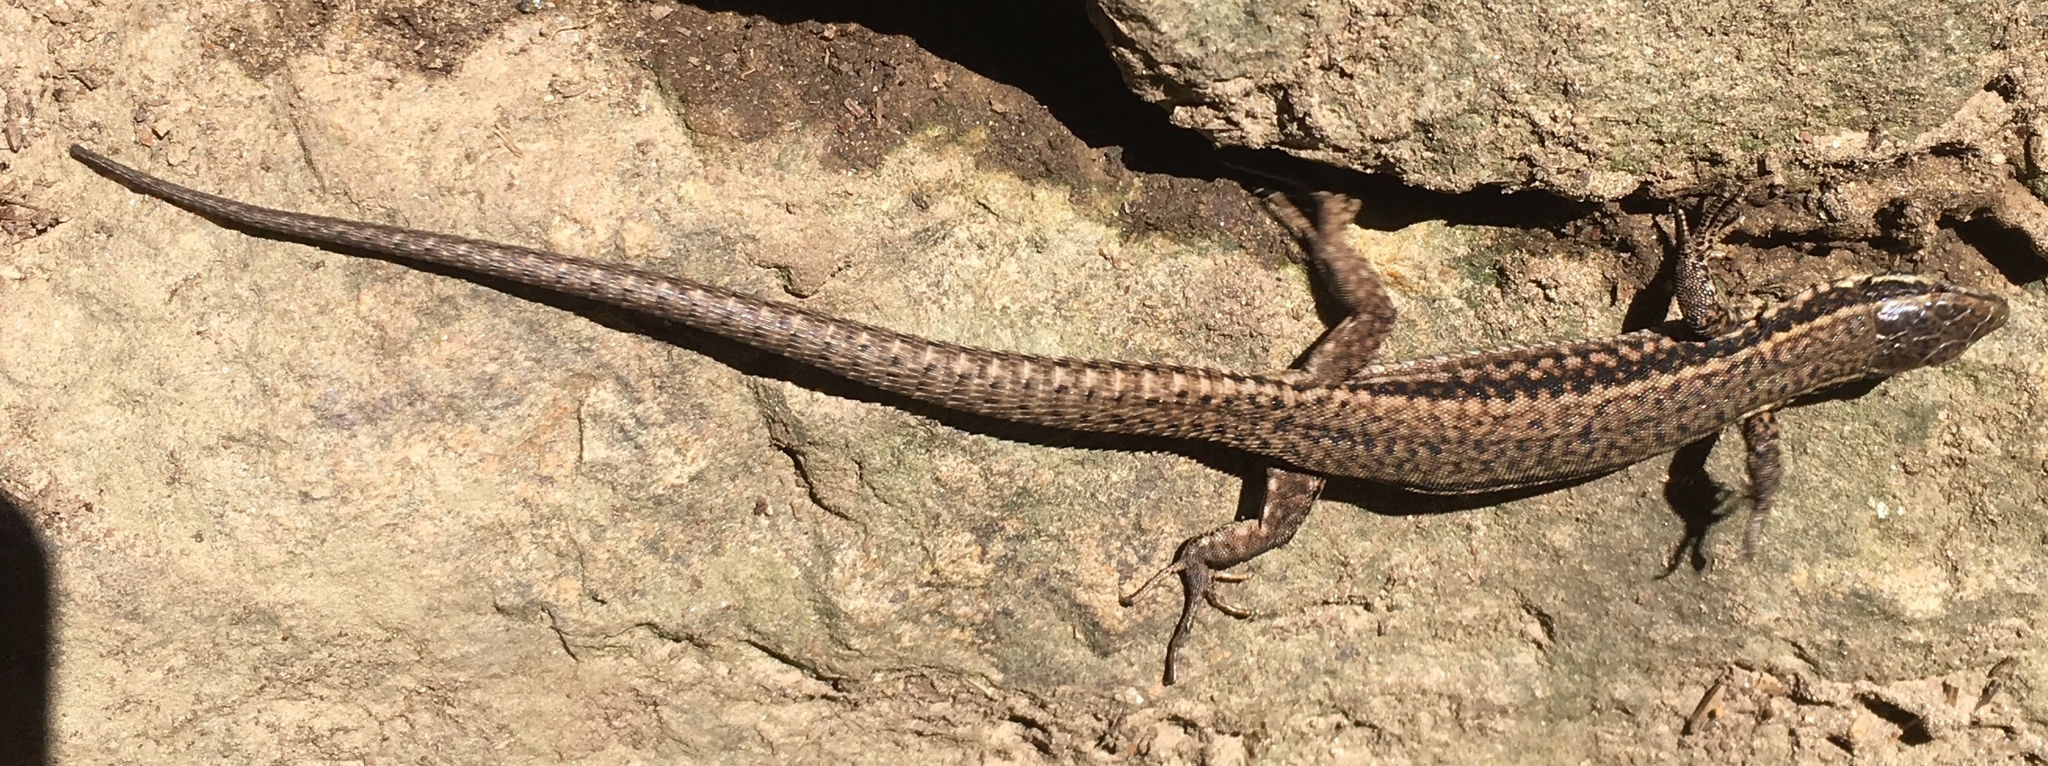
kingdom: Animalia
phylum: Chordata
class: Squamata
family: Lacertidae
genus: Podarcis
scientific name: Podarcis muralis
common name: Common wall lizard
